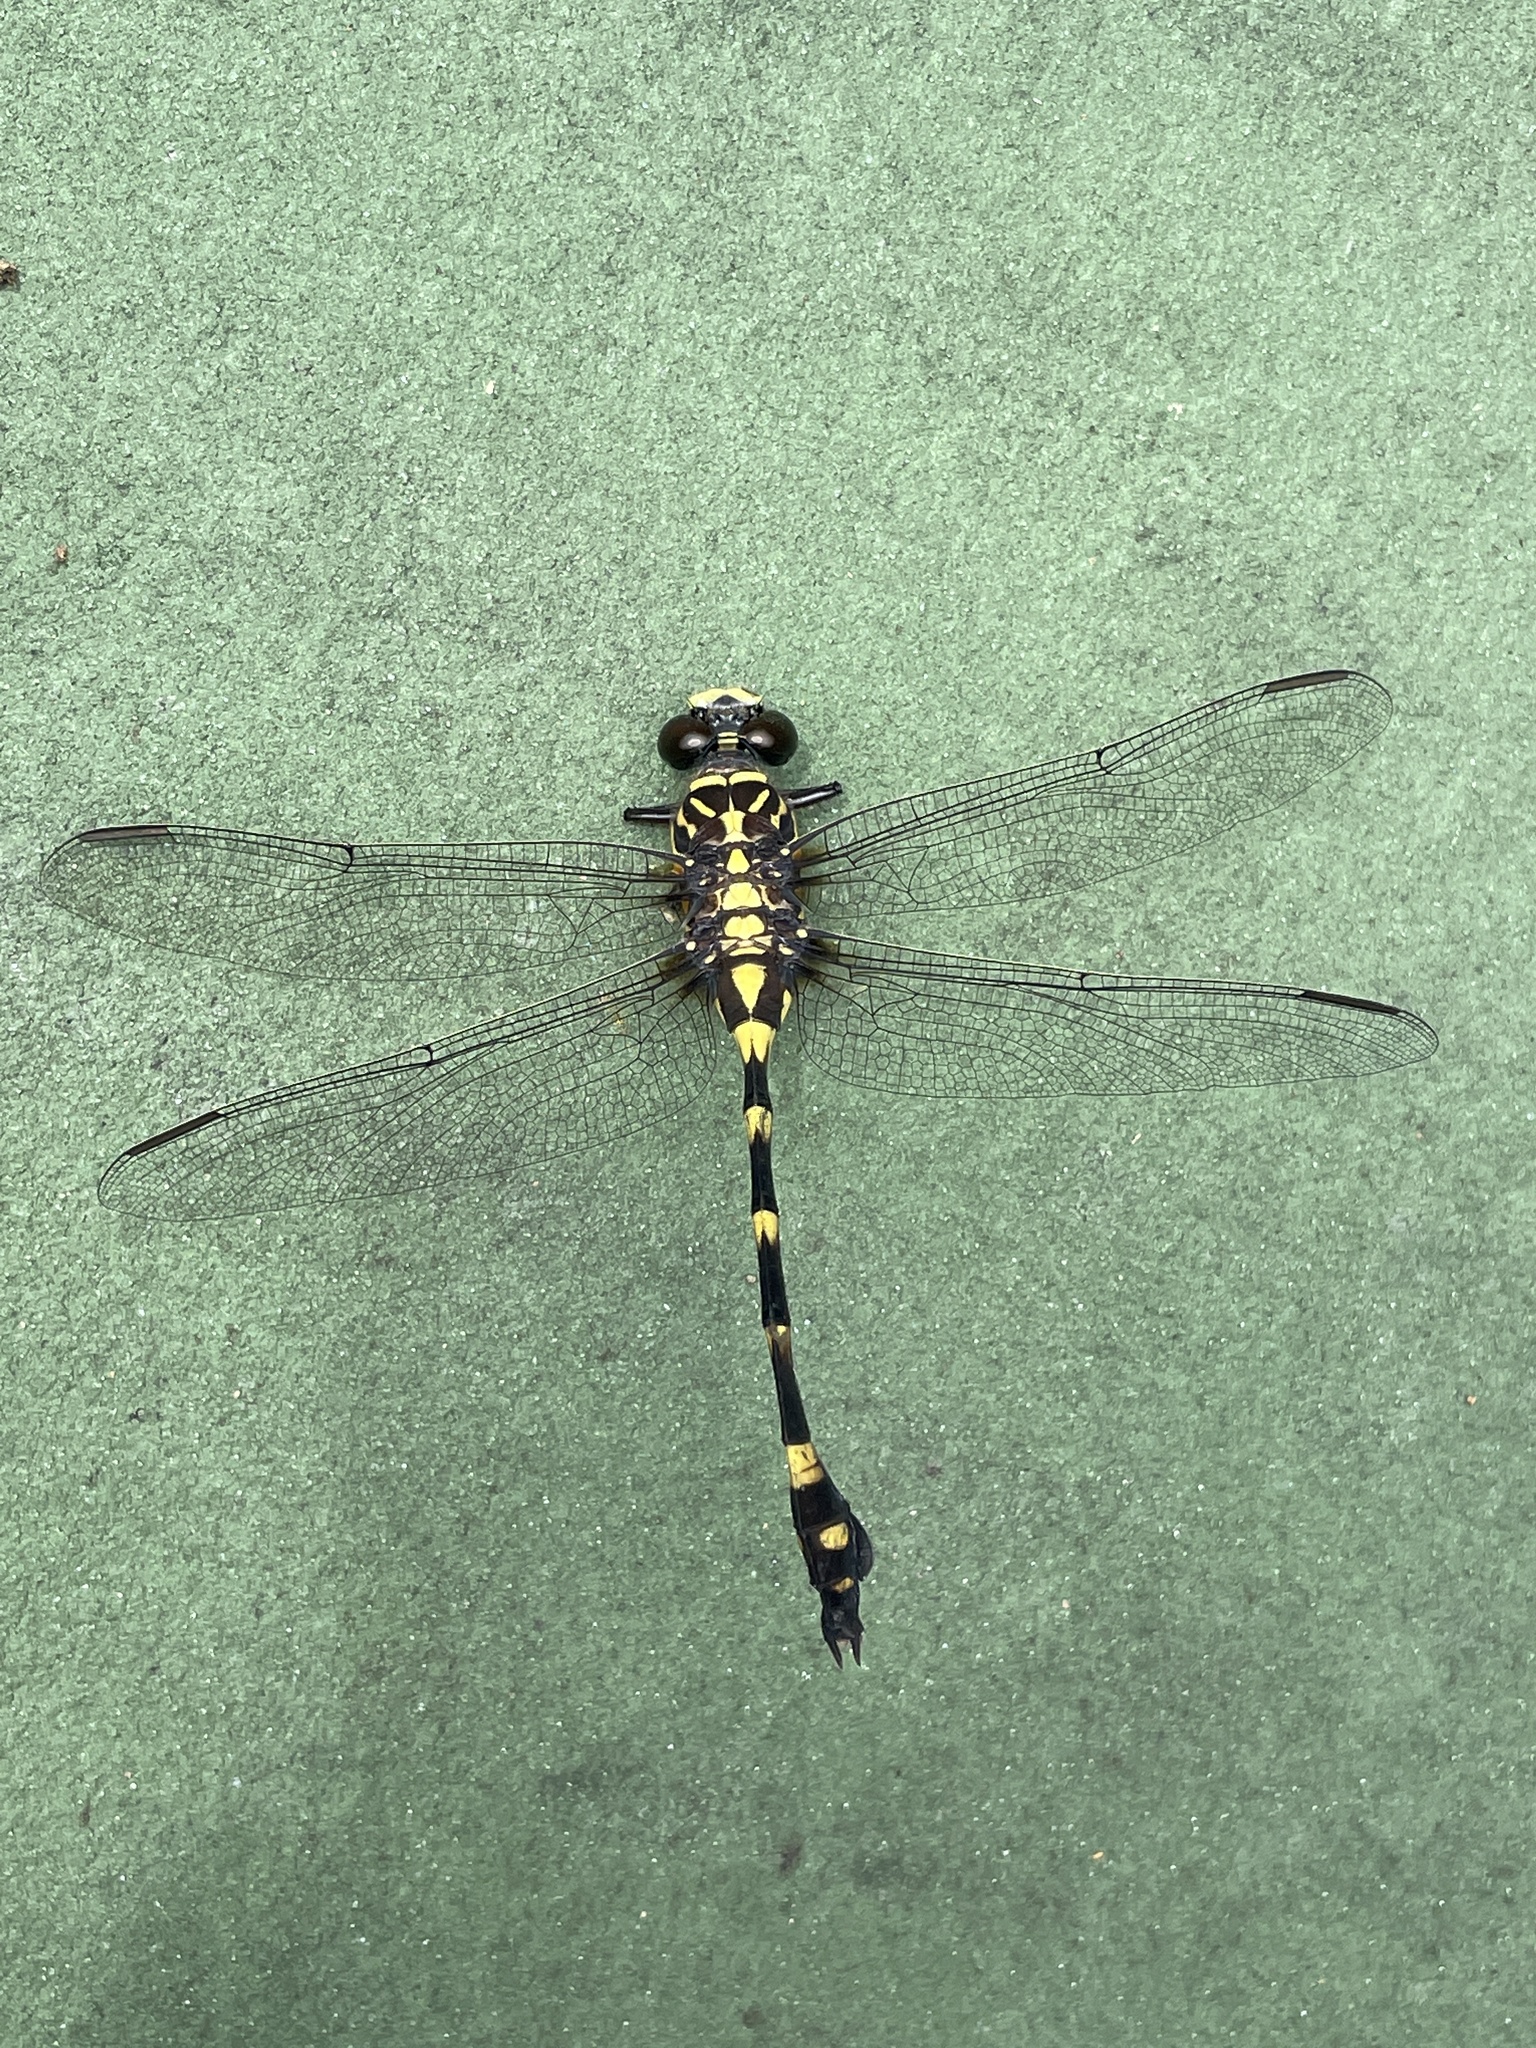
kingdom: Animalia
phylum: Arthropoda
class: Insecta
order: Odonata
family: Gomphidae
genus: Ictinogomphus
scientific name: Ictinogomphus pertinax
